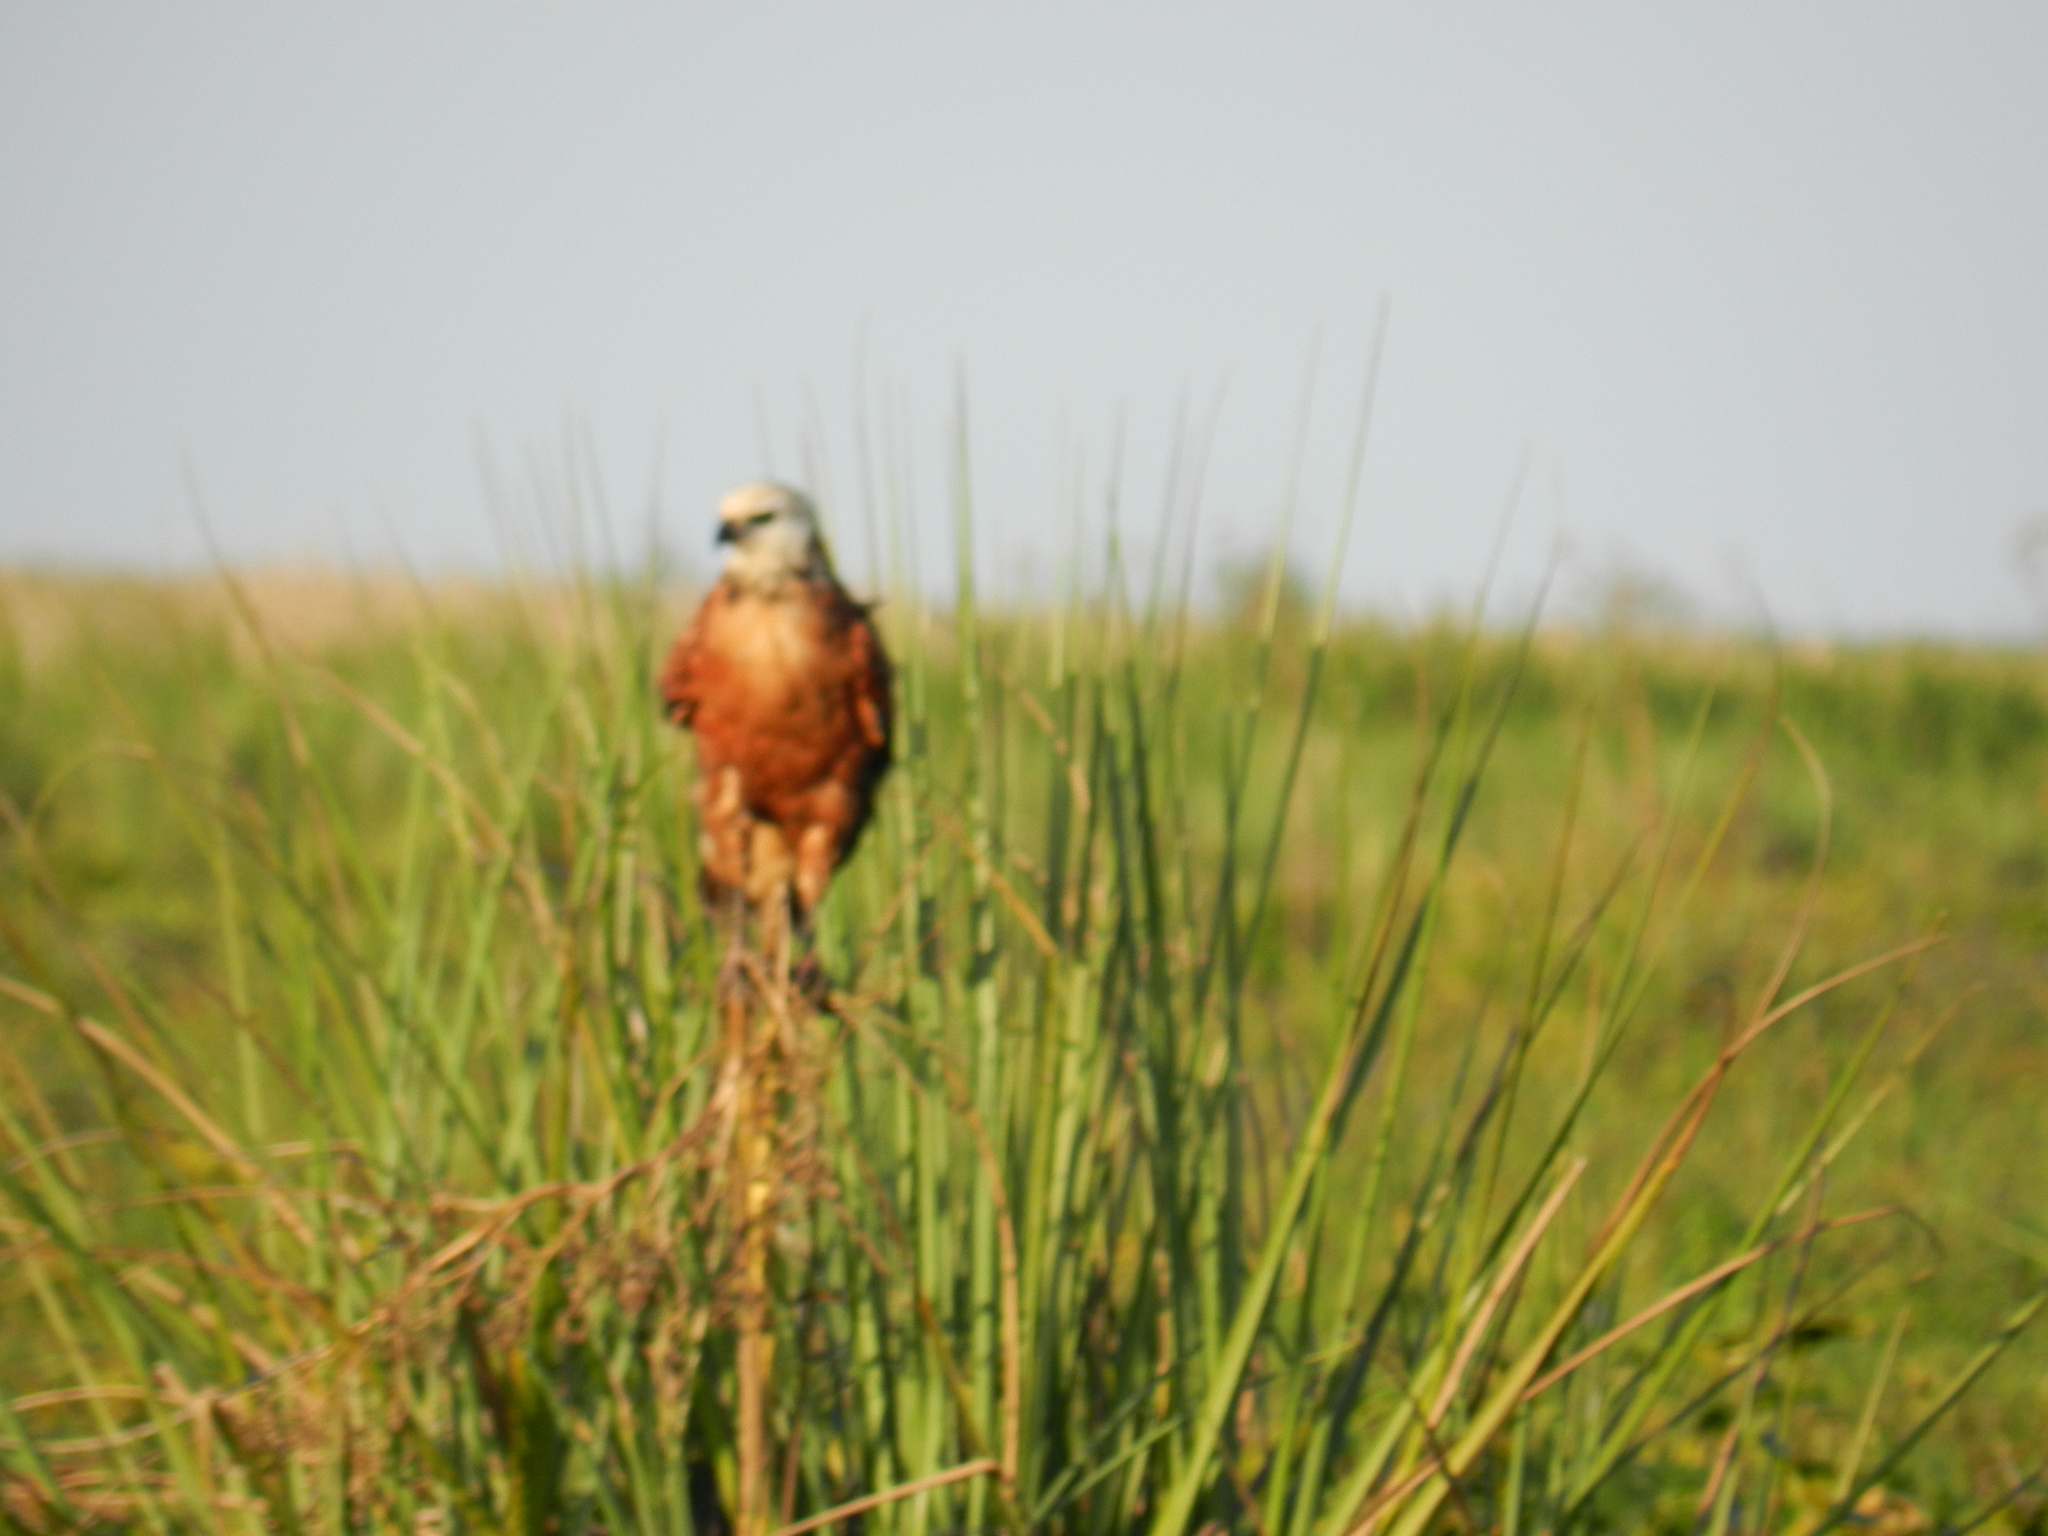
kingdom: Animalia
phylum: Chordata
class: Aves
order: Accipitriformes
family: Accipitridae
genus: Busarellus
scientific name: Busarellus nigricollis
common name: Black-collared hawk
